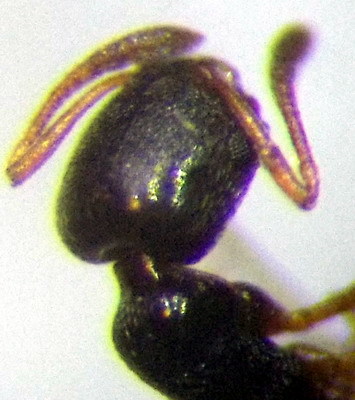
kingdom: Animalia
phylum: Arthropoda
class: Insecta
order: Hymenoptera
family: Formicidae
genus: Cardiocondyla
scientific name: Cardiocondyla stambuloffii
